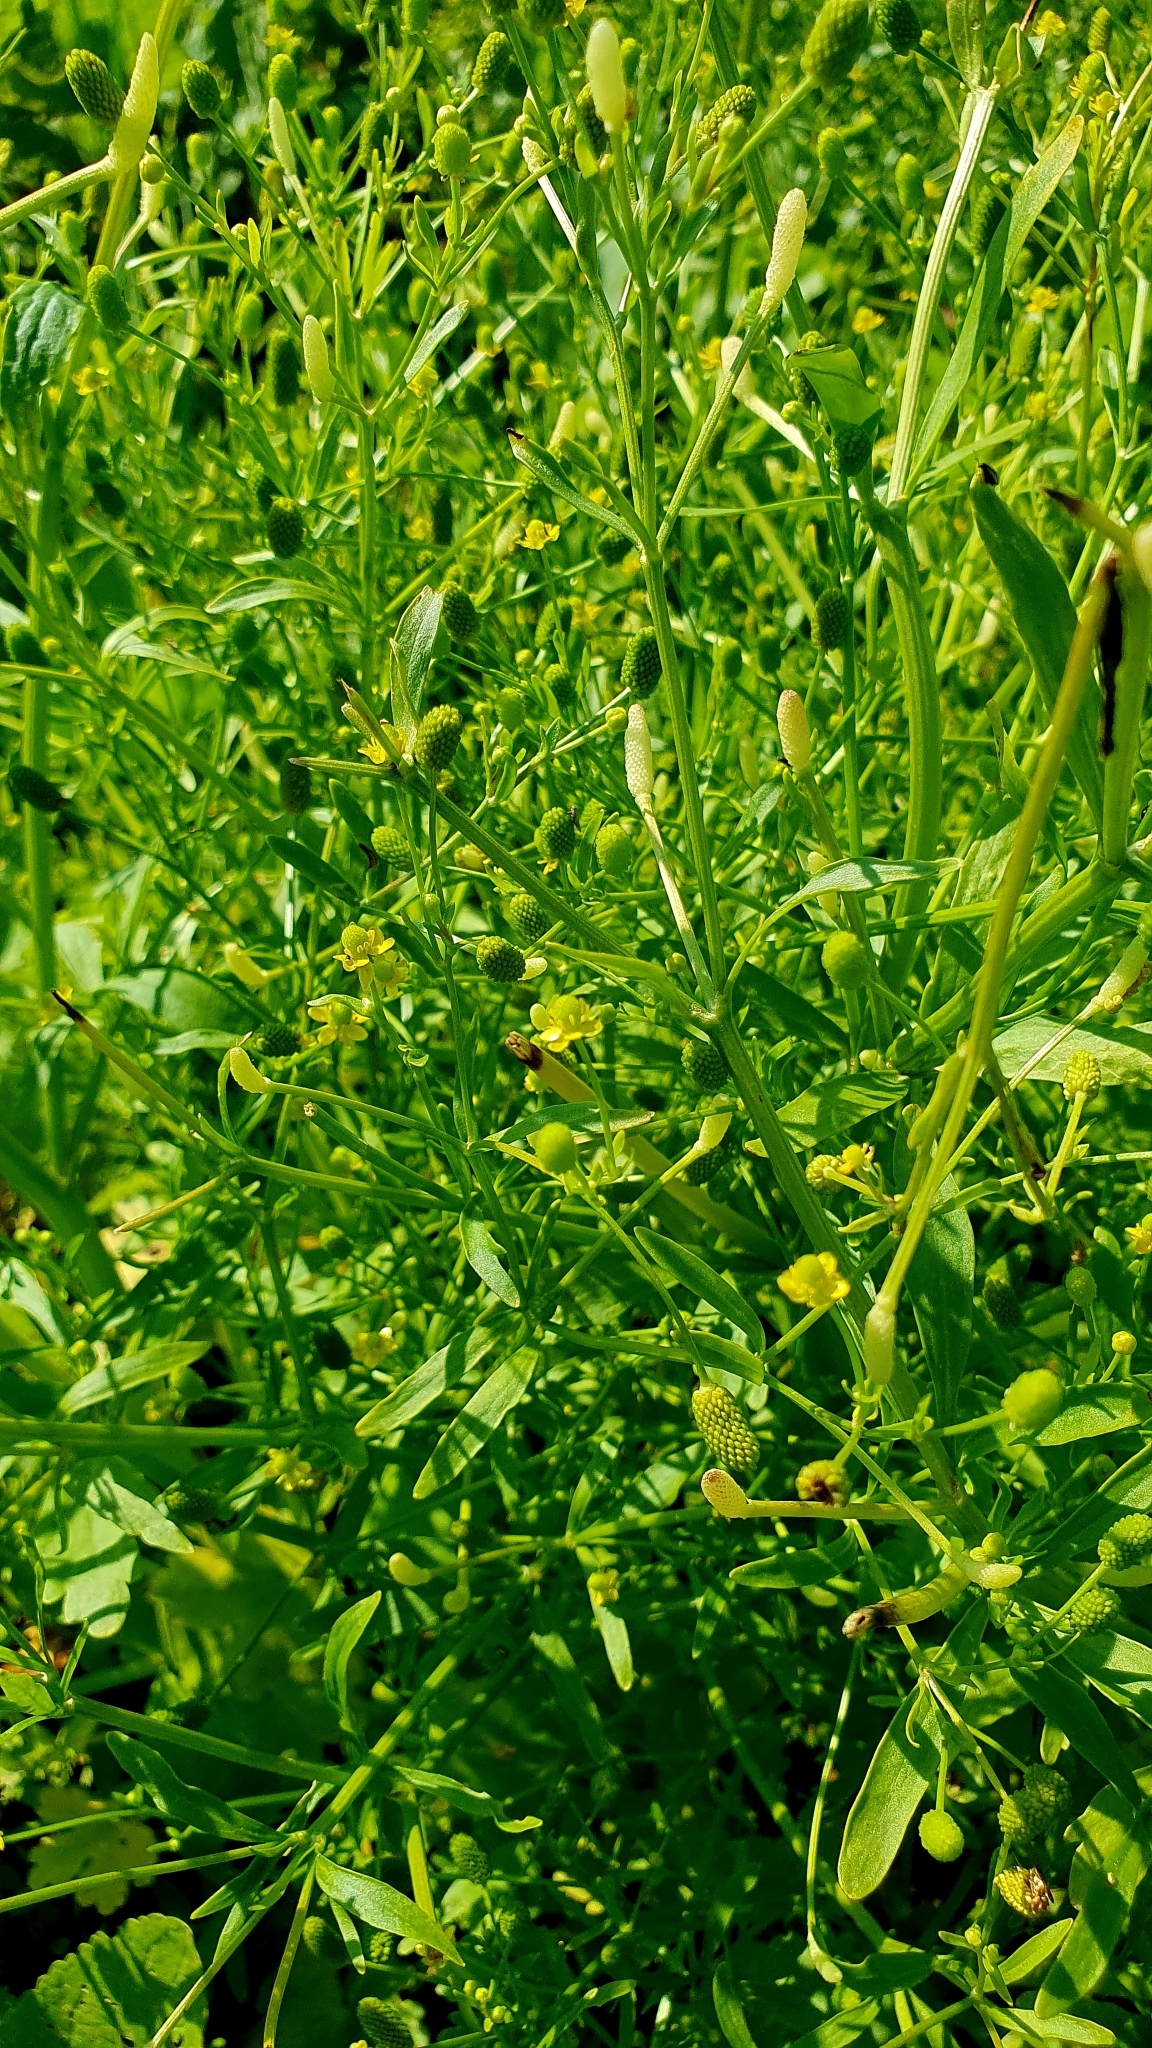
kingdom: Plantae
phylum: Tracheophyta
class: Magnoliopsida
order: Ranunculales
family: Ranunculaceae
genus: Ranunculus
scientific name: Ranunculus sceleratus
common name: Celery-leaved buttercup
